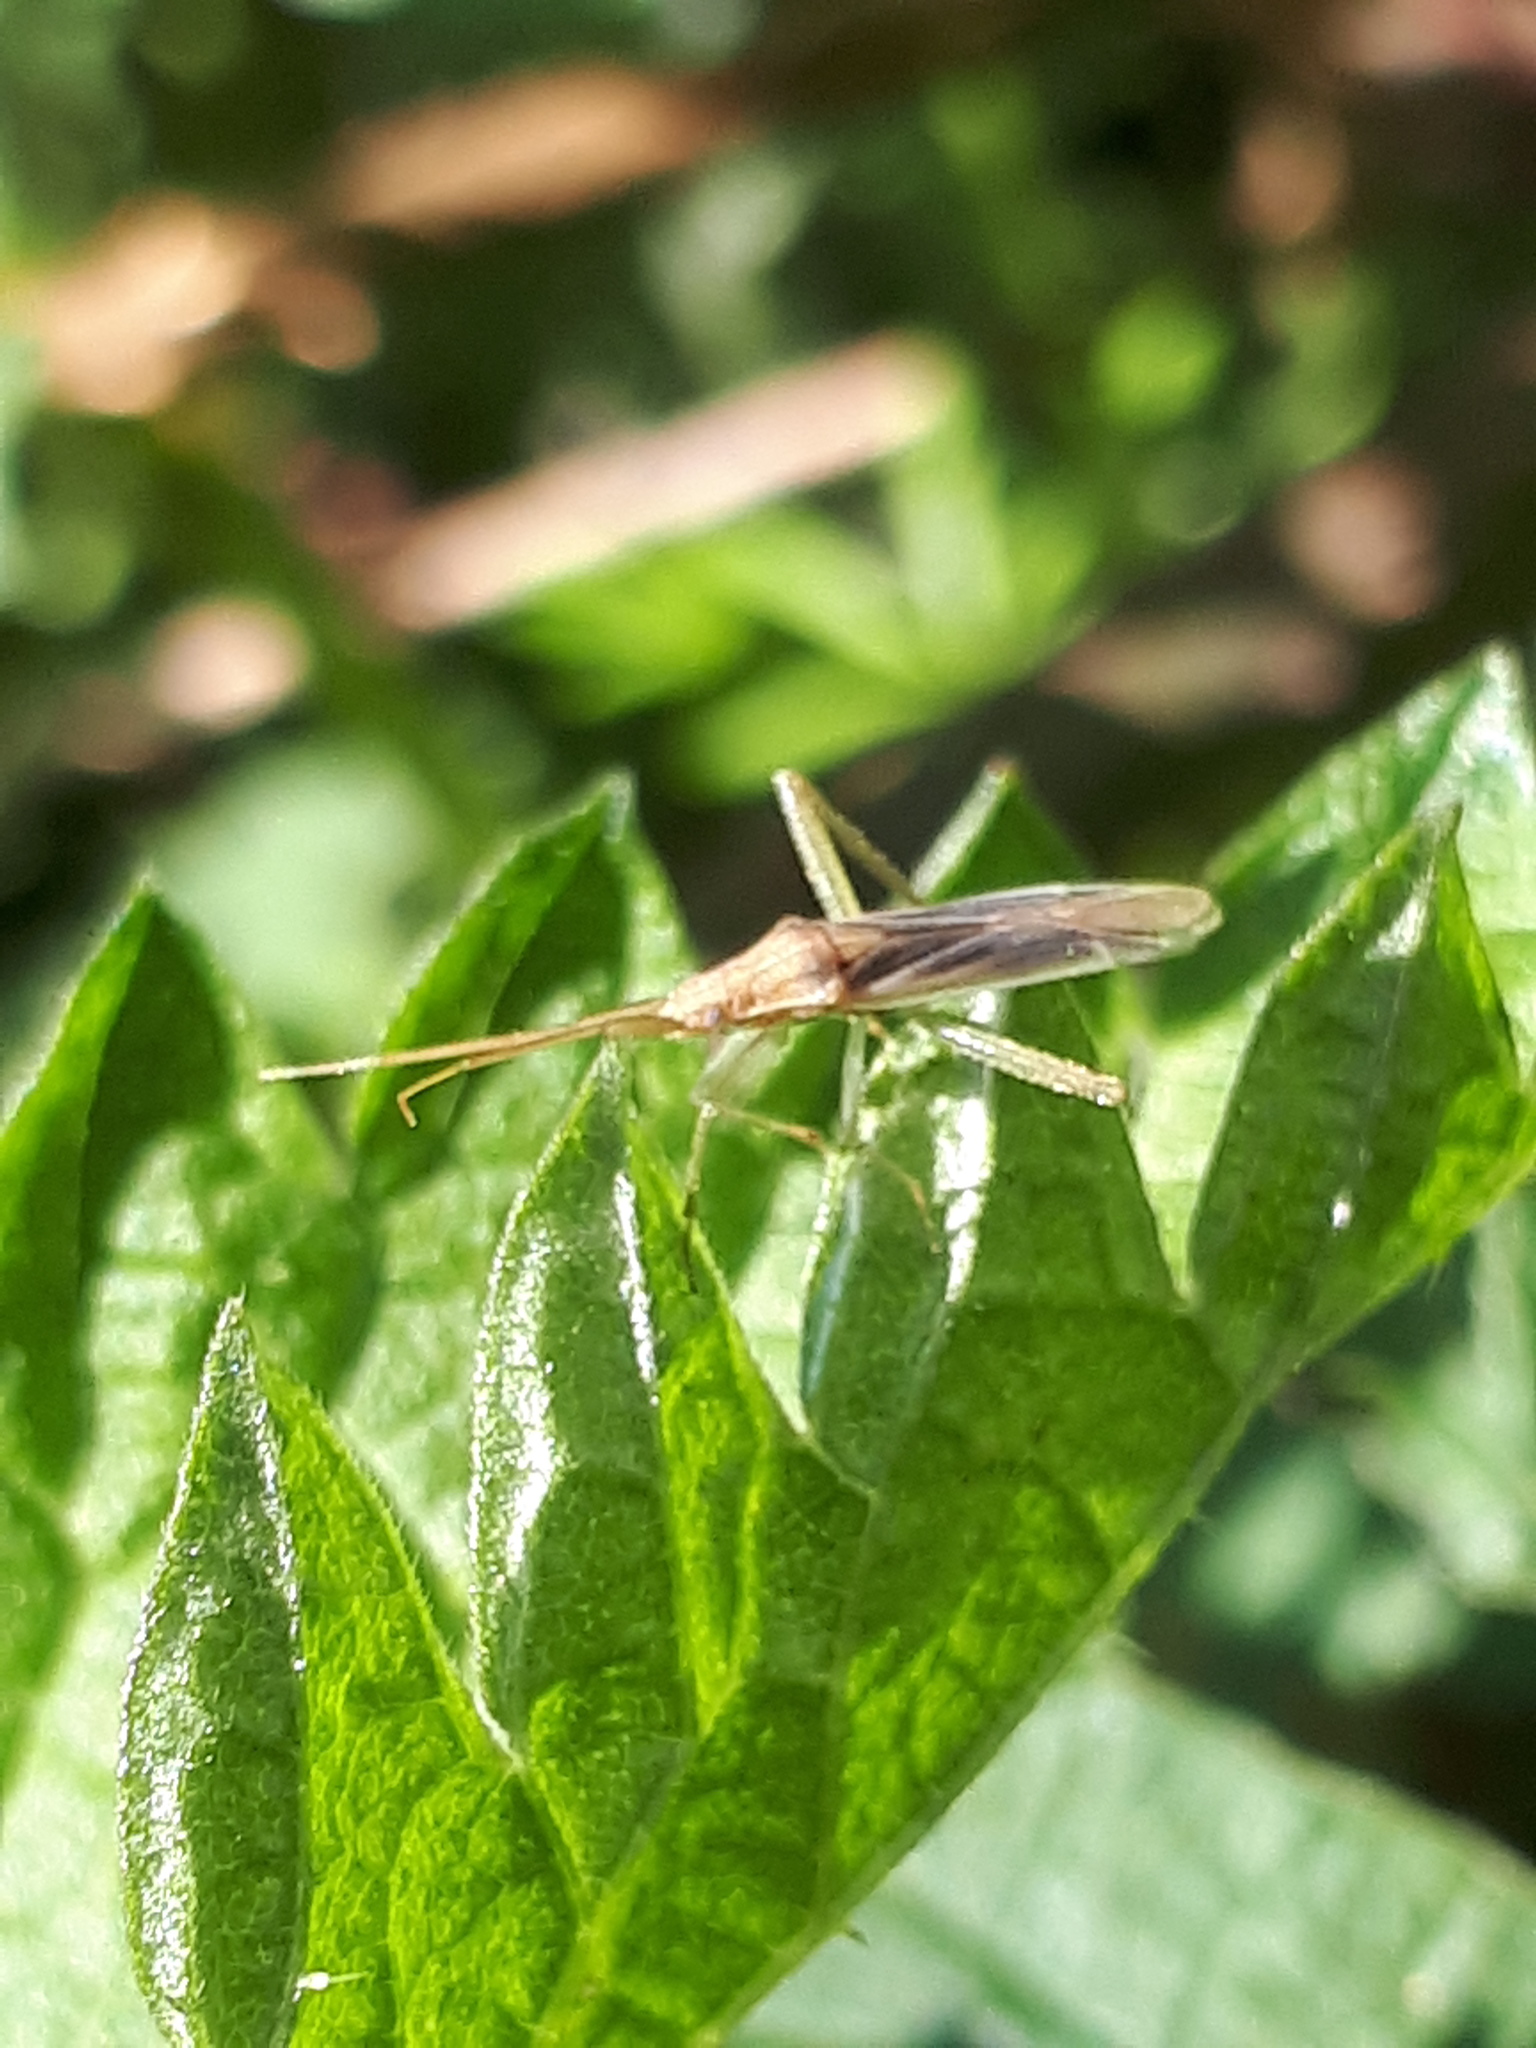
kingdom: Animalia
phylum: Arthropoda
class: Insecta
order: Hemiptera
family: Miridae
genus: Stenodema
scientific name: Stenodema laevigata
